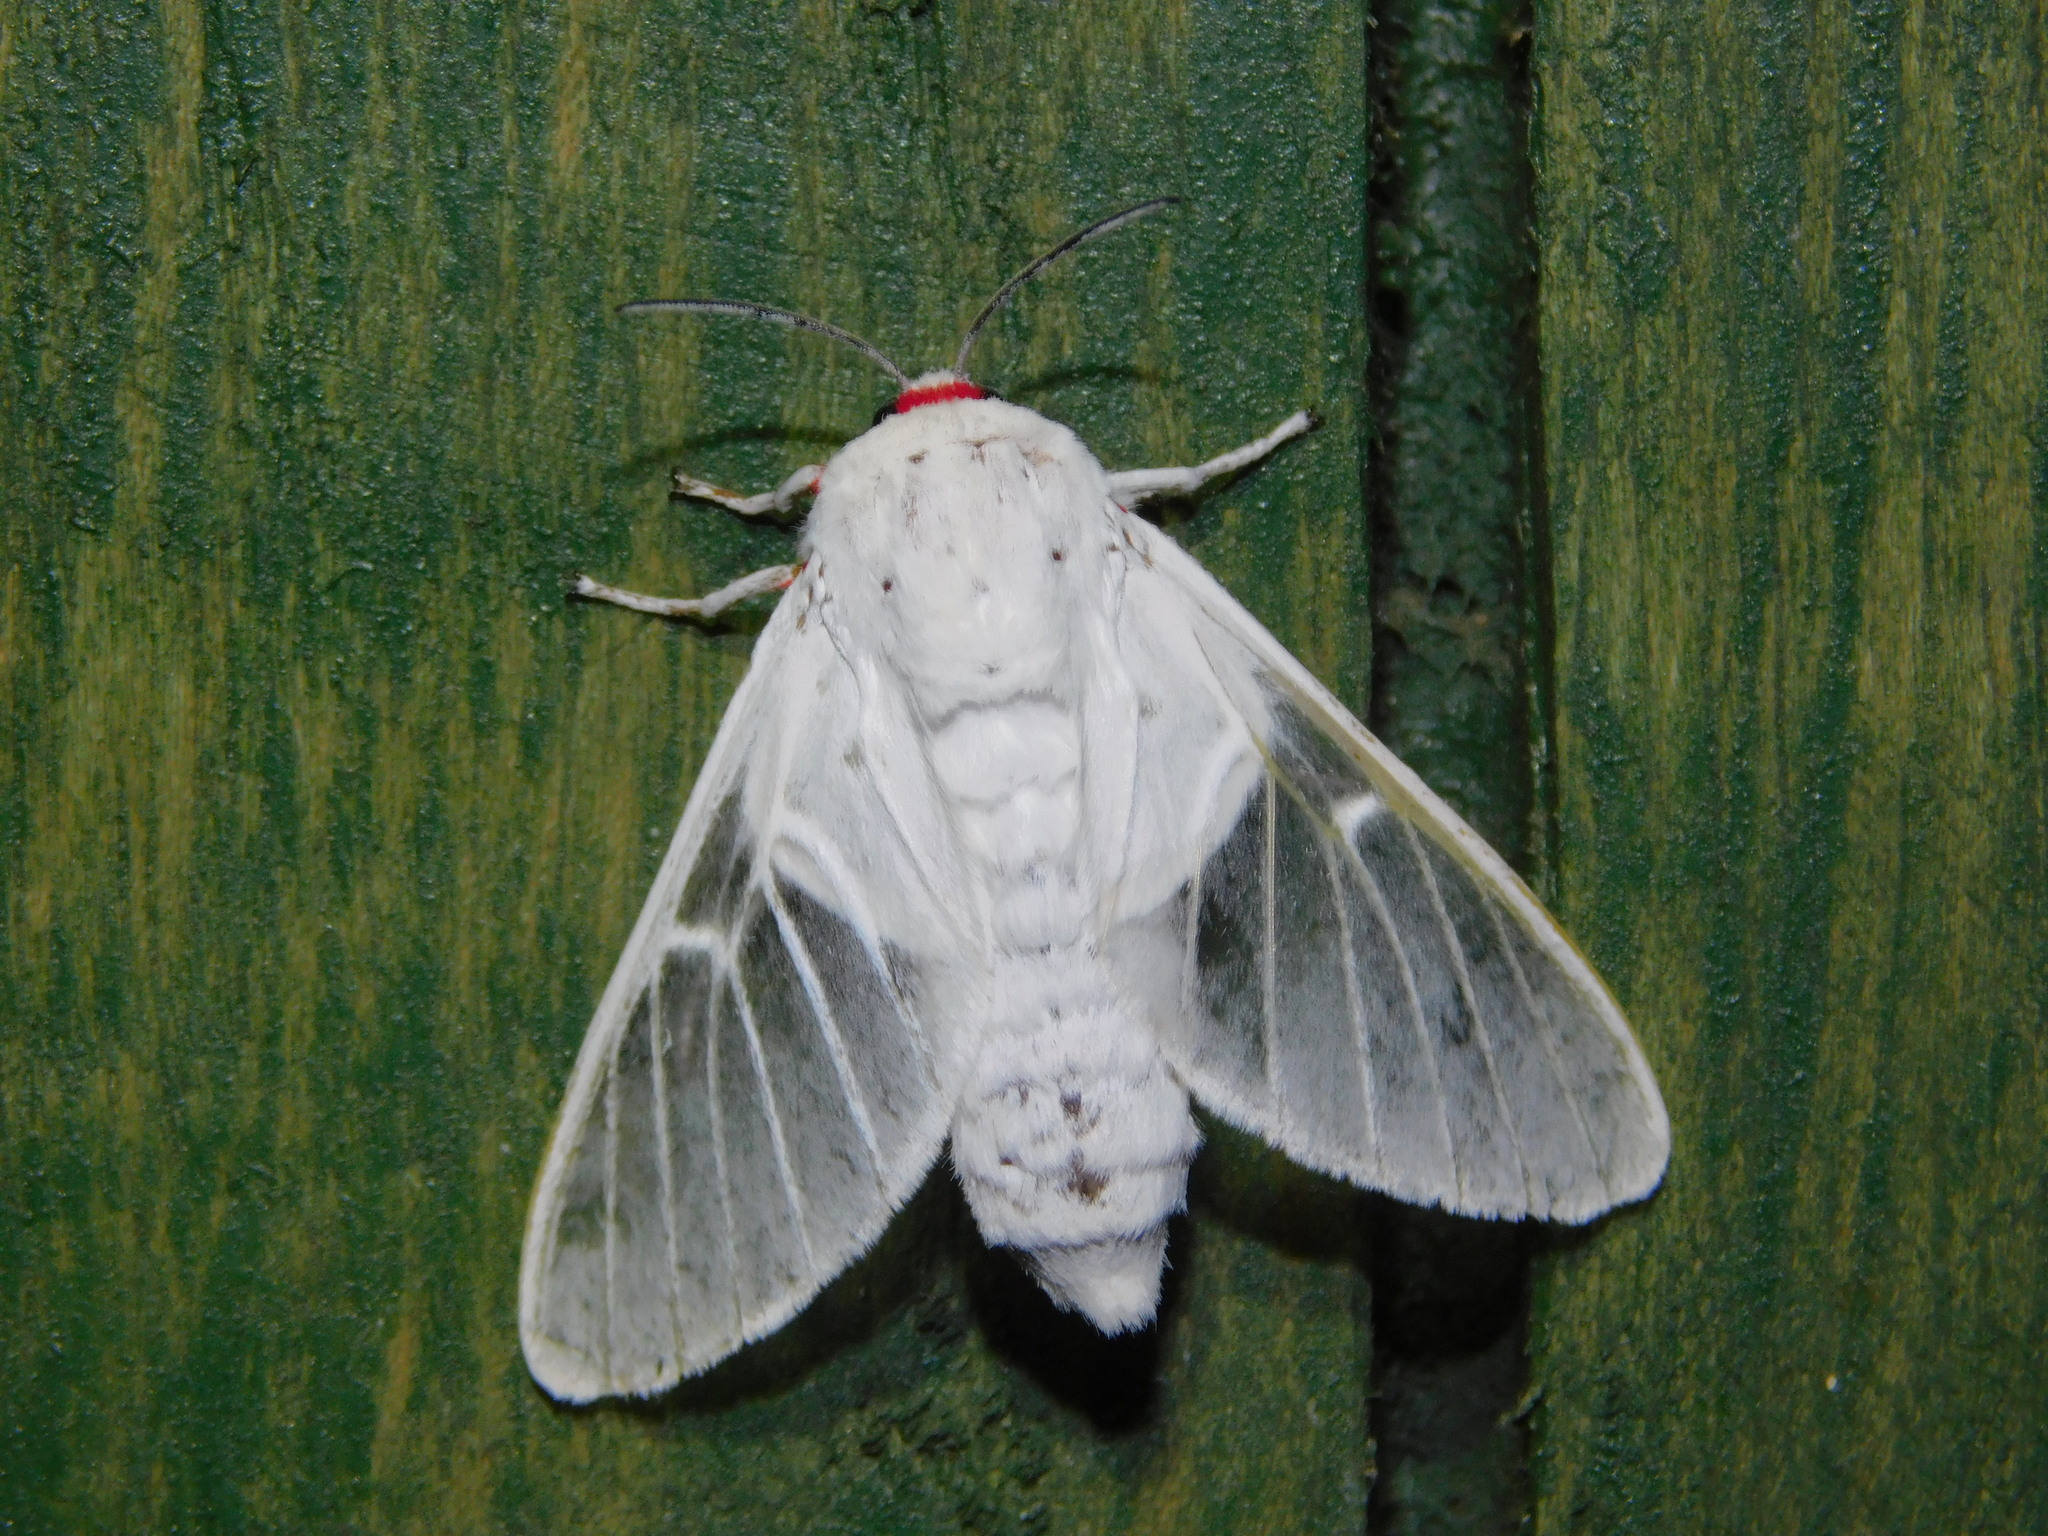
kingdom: Animalia
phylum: Arthropoda
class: Insecta
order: Lepidoptera
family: Erebidae
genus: Balacra
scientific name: Balacra pulchra
